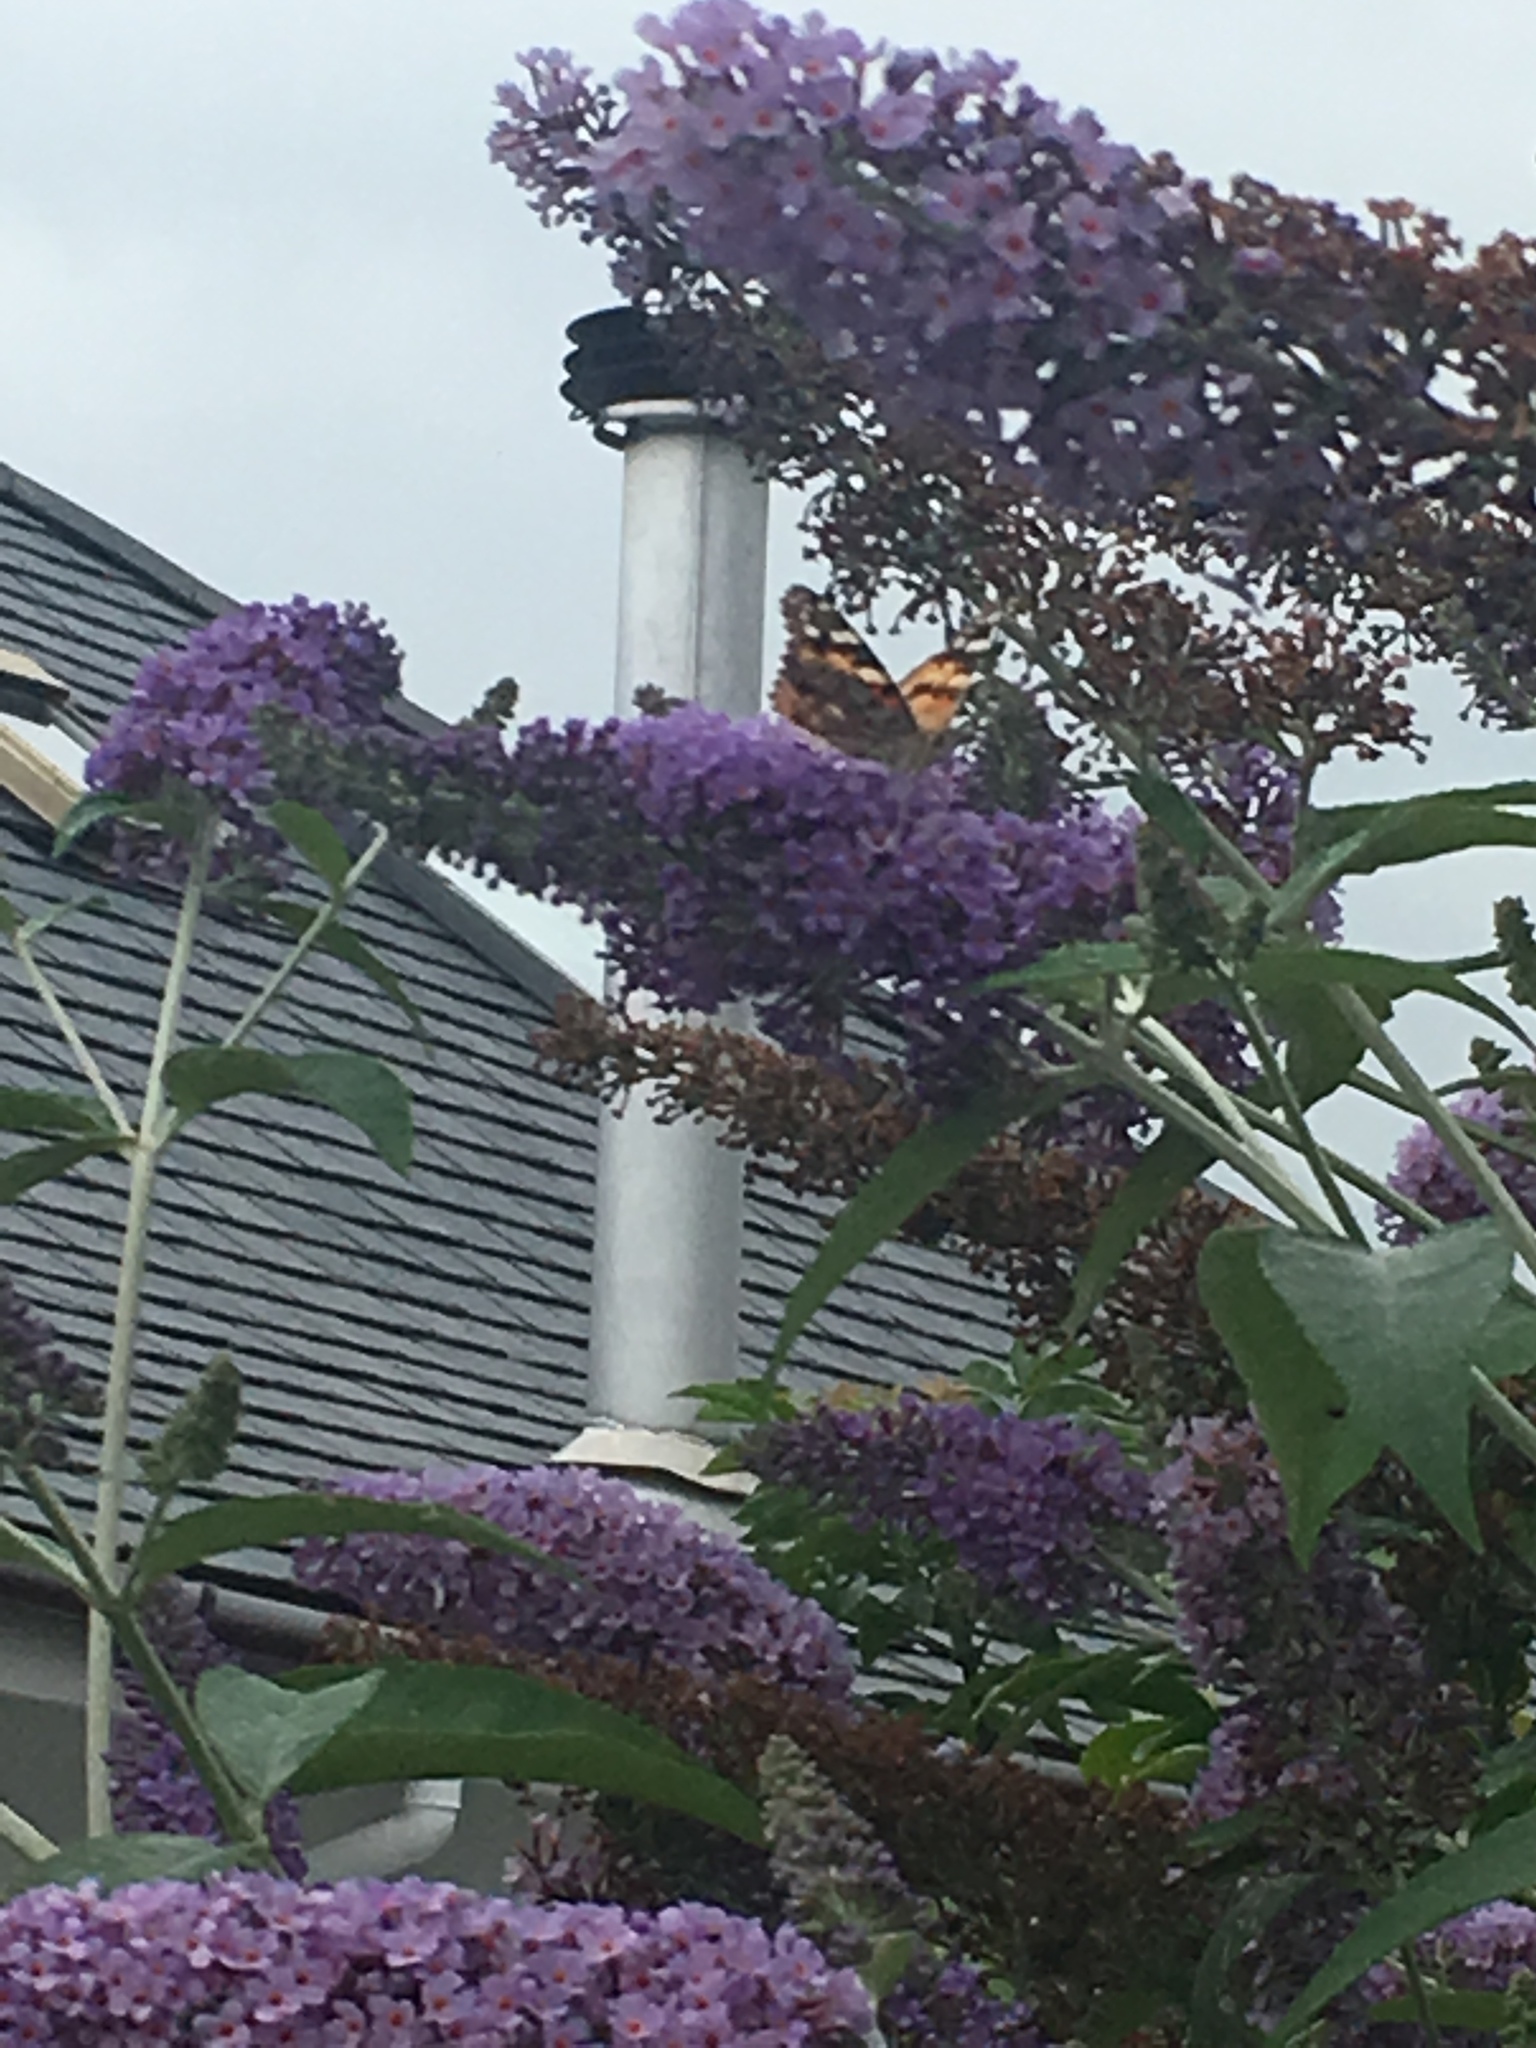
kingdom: Animalia
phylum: Arthropoda
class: Insecta
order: Lepidoptera
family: Nymphalidae
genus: Vanessa
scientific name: Vanessa cardui
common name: Painted lady
